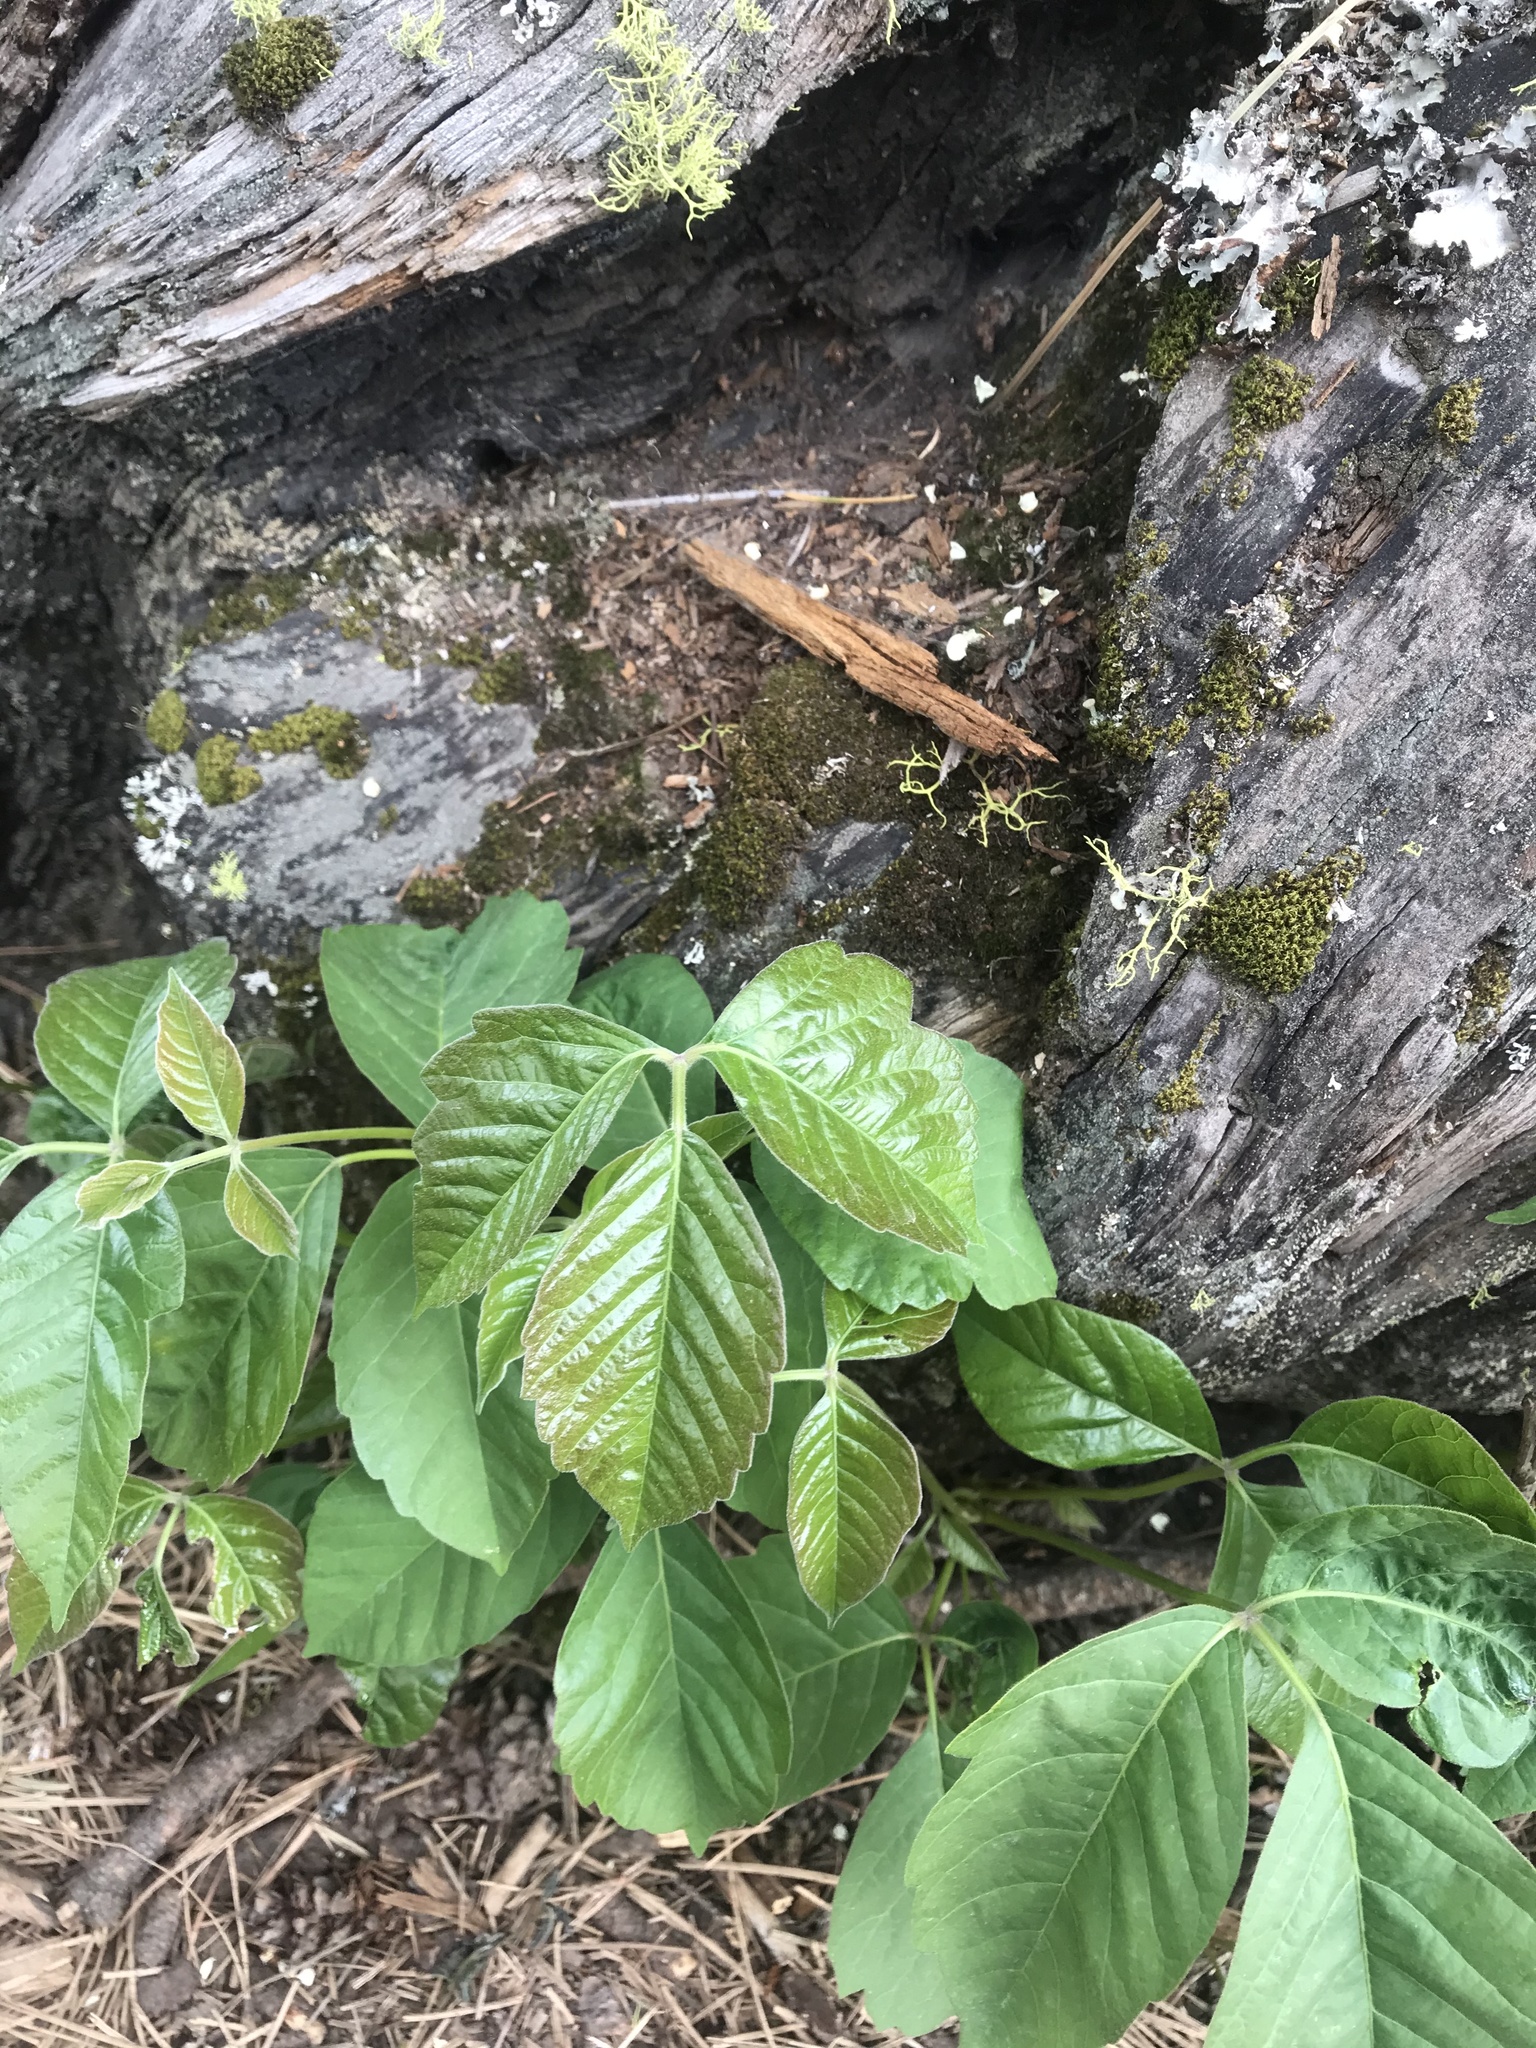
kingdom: Plantae
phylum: Tracheophyta
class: Magnoliopsida
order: Sapindales
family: Anacardiaceae
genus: Toxicodendron
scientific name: Toxicodendron rydbergii
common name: Rydberg's poison-ivy
